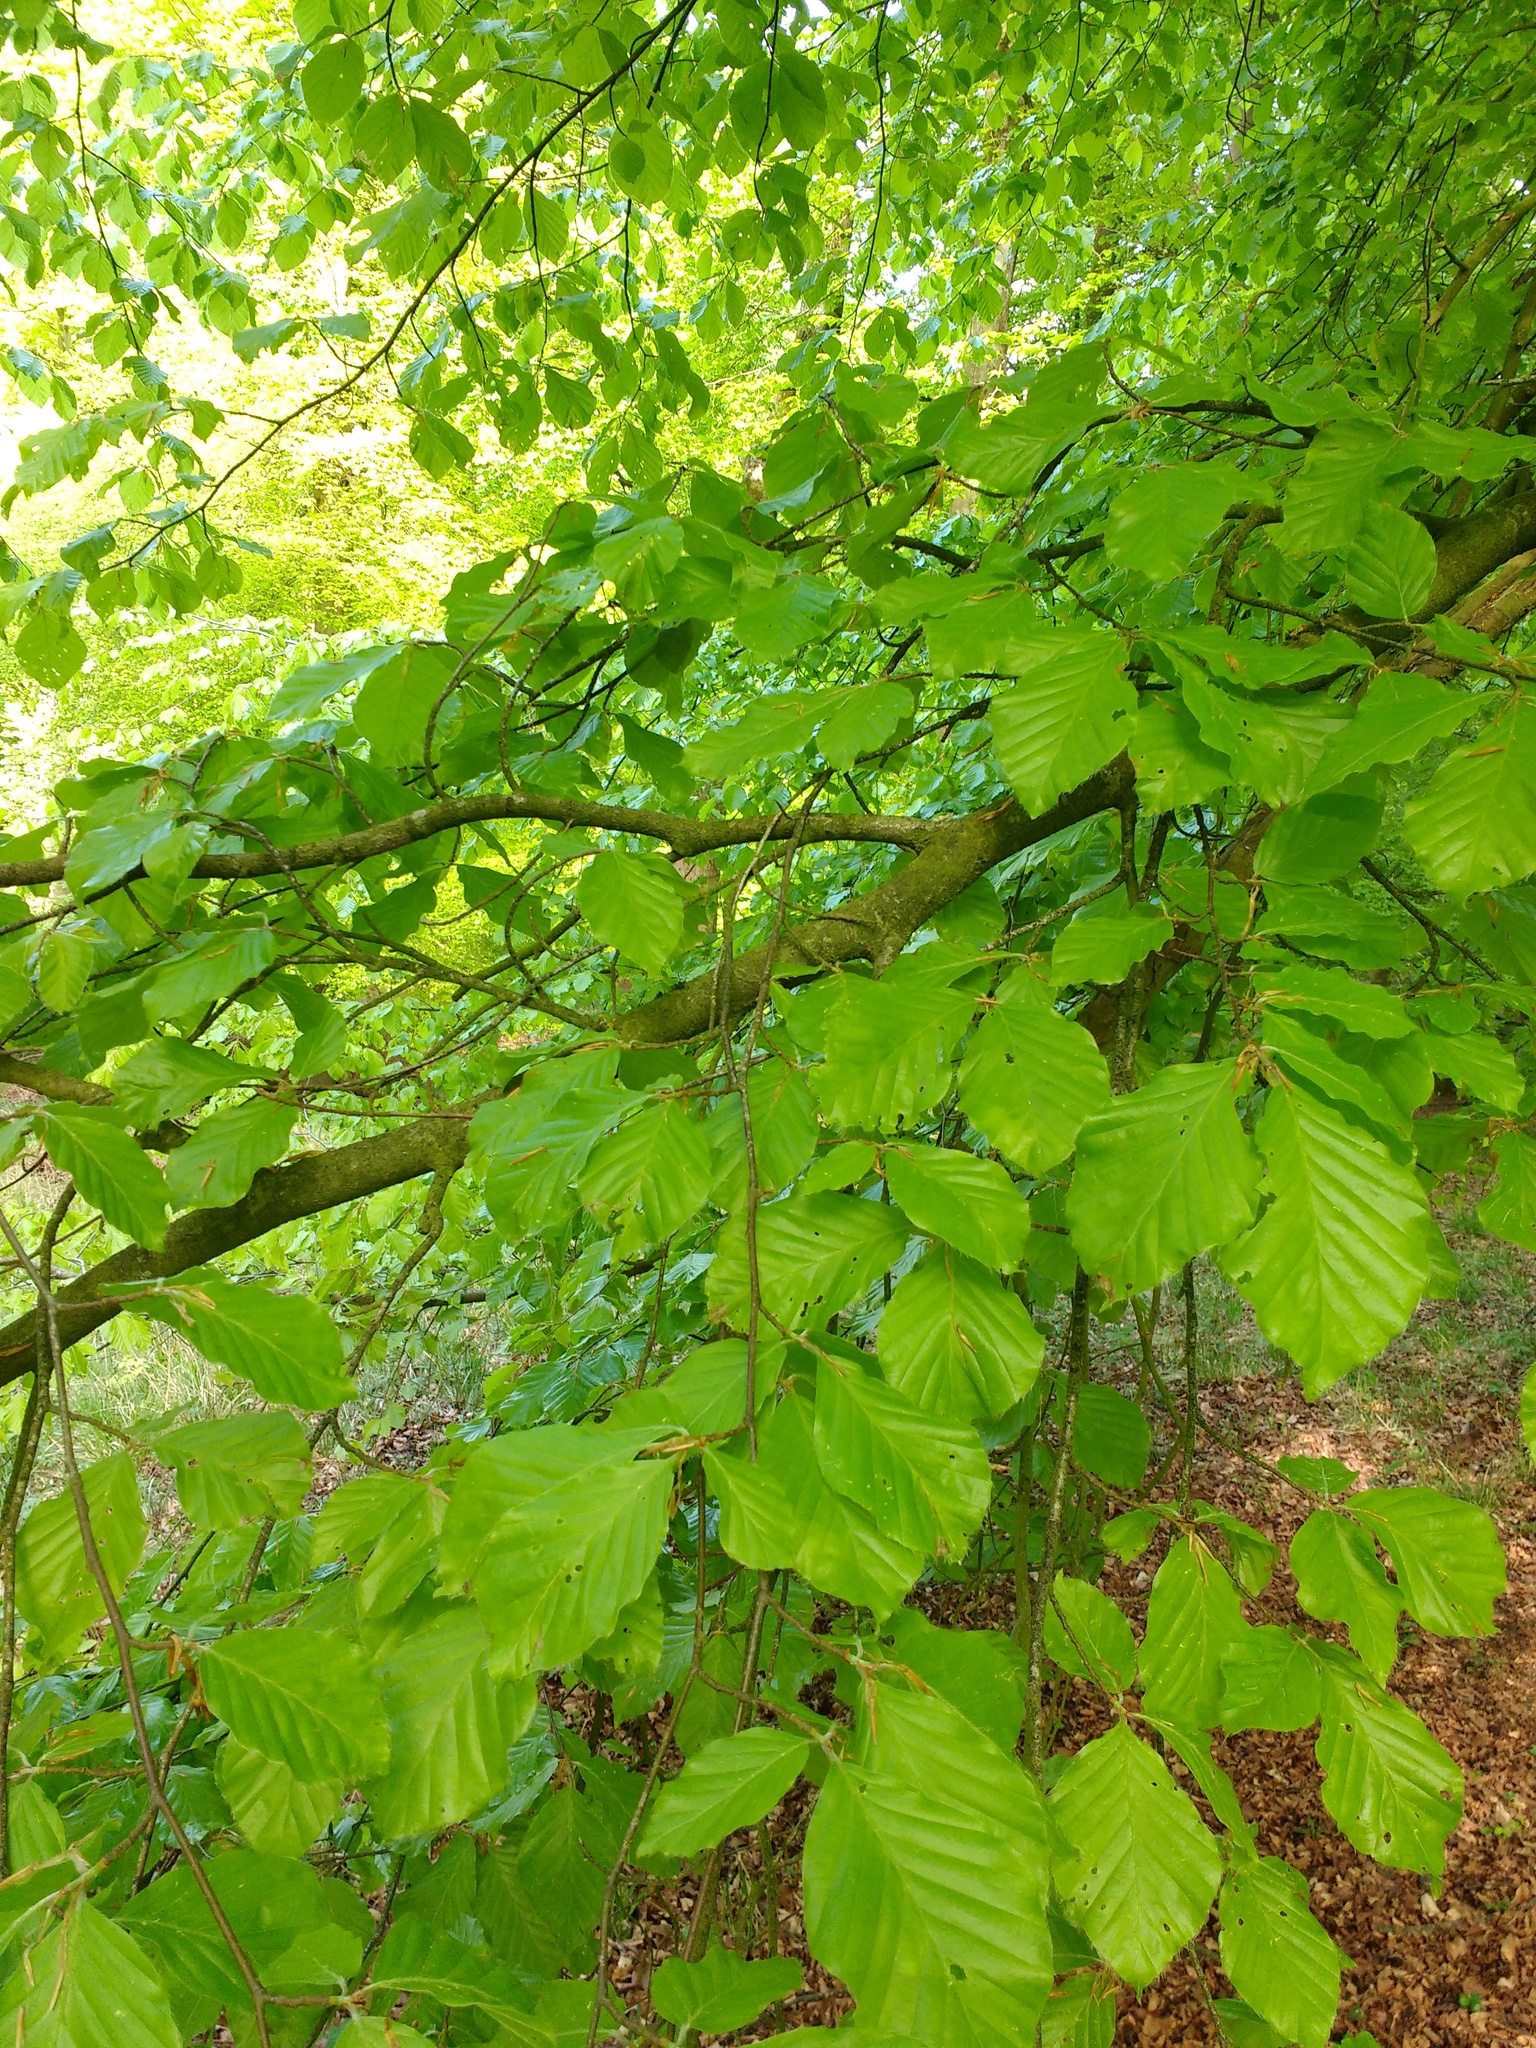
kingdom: Plantae
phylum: Tracheophyta
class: Magnoliopsida
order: Fagales
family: Fagaceae
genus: Fagus
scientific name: Fagus sylvatica
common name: Beech
